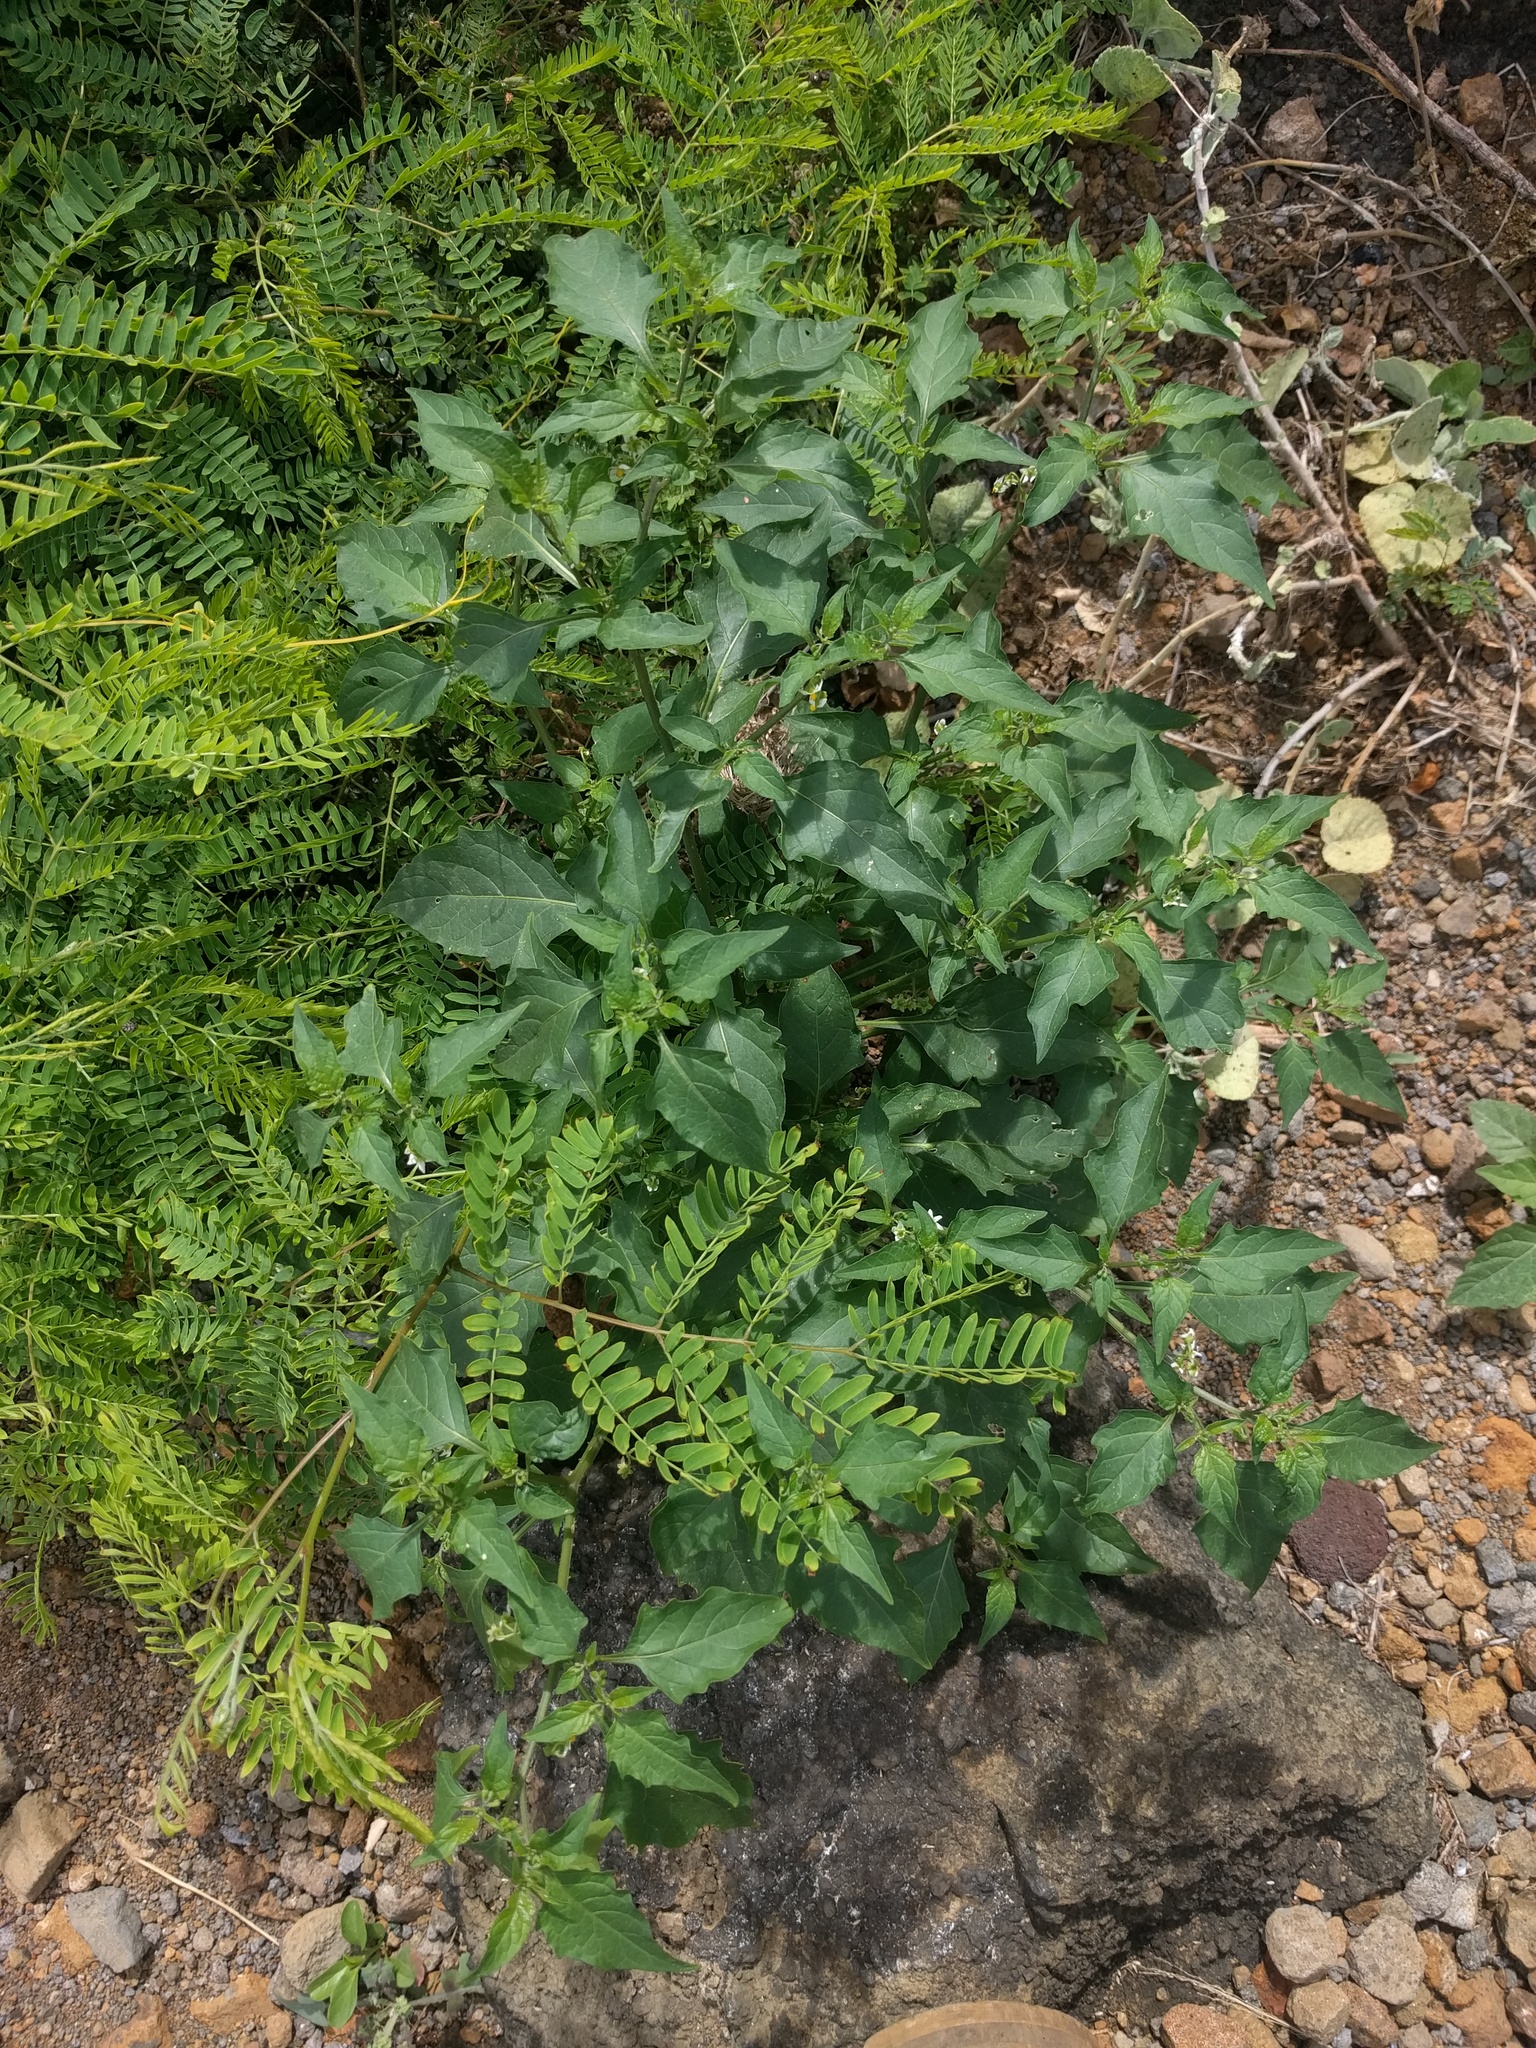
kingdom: Plantae
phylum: Tracheophyta
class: Magnoliopsida
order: Solanales
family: Solanaceae
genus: Solanum
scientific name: Solanum americanum
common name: American black nightshade
